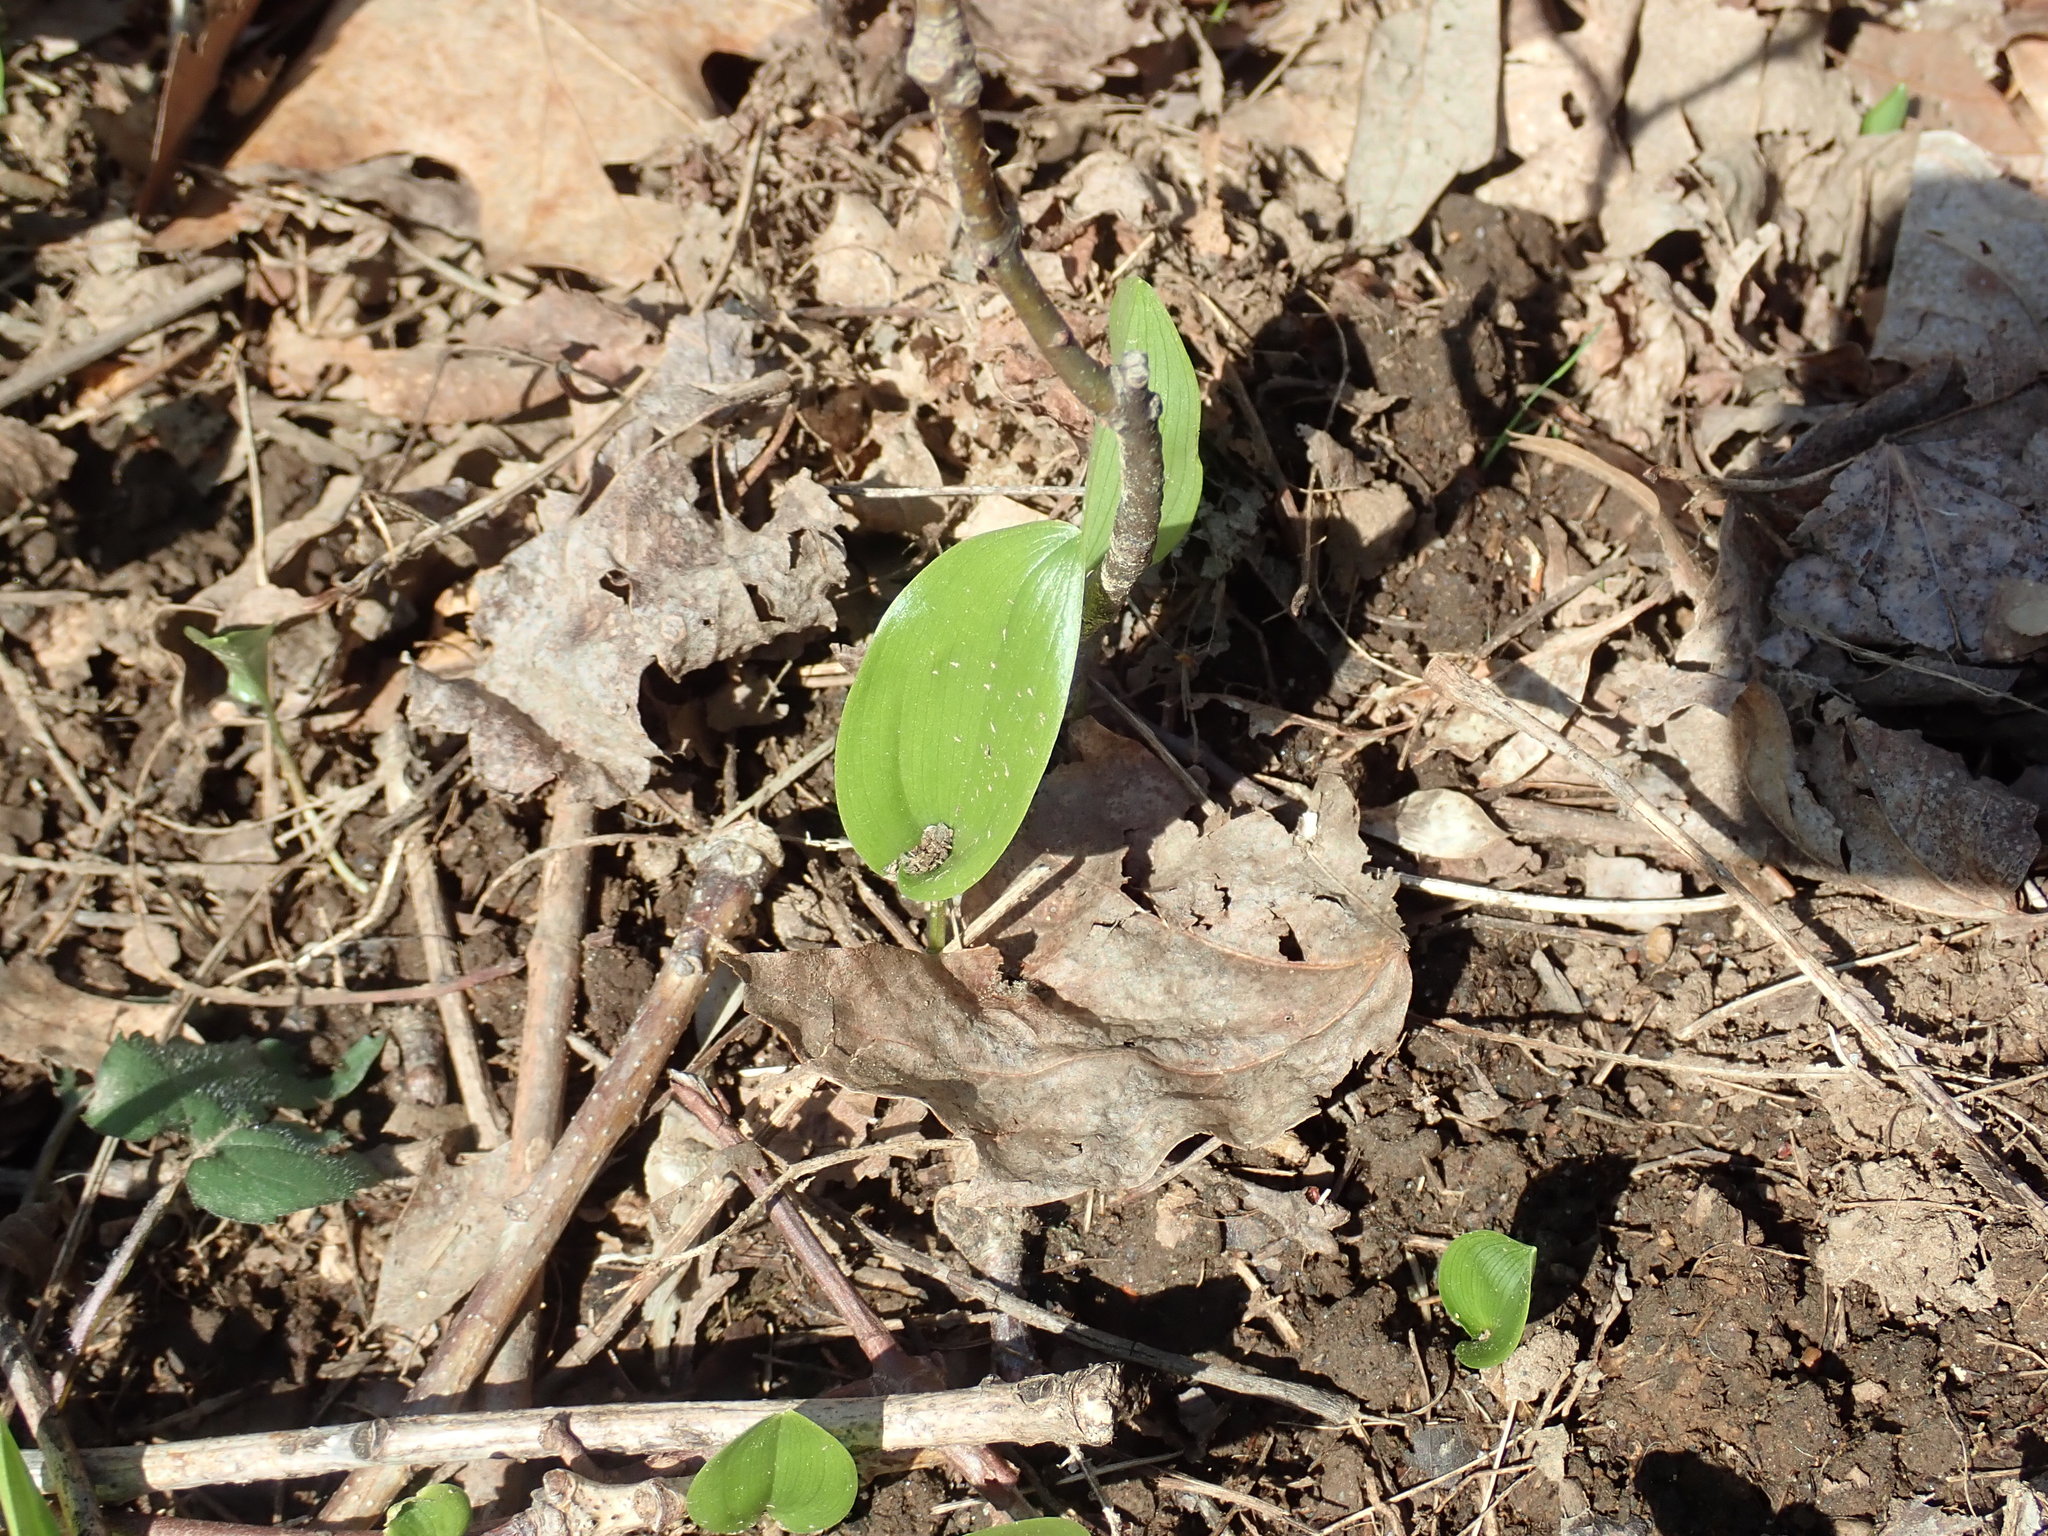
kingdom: Plantae
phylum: Tracheophyta
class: Liliopsida
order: Asparagales
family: Asparagaceae
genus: Maianthemum
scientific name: Maianthemum canadense
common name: False lily-of-the-valley
